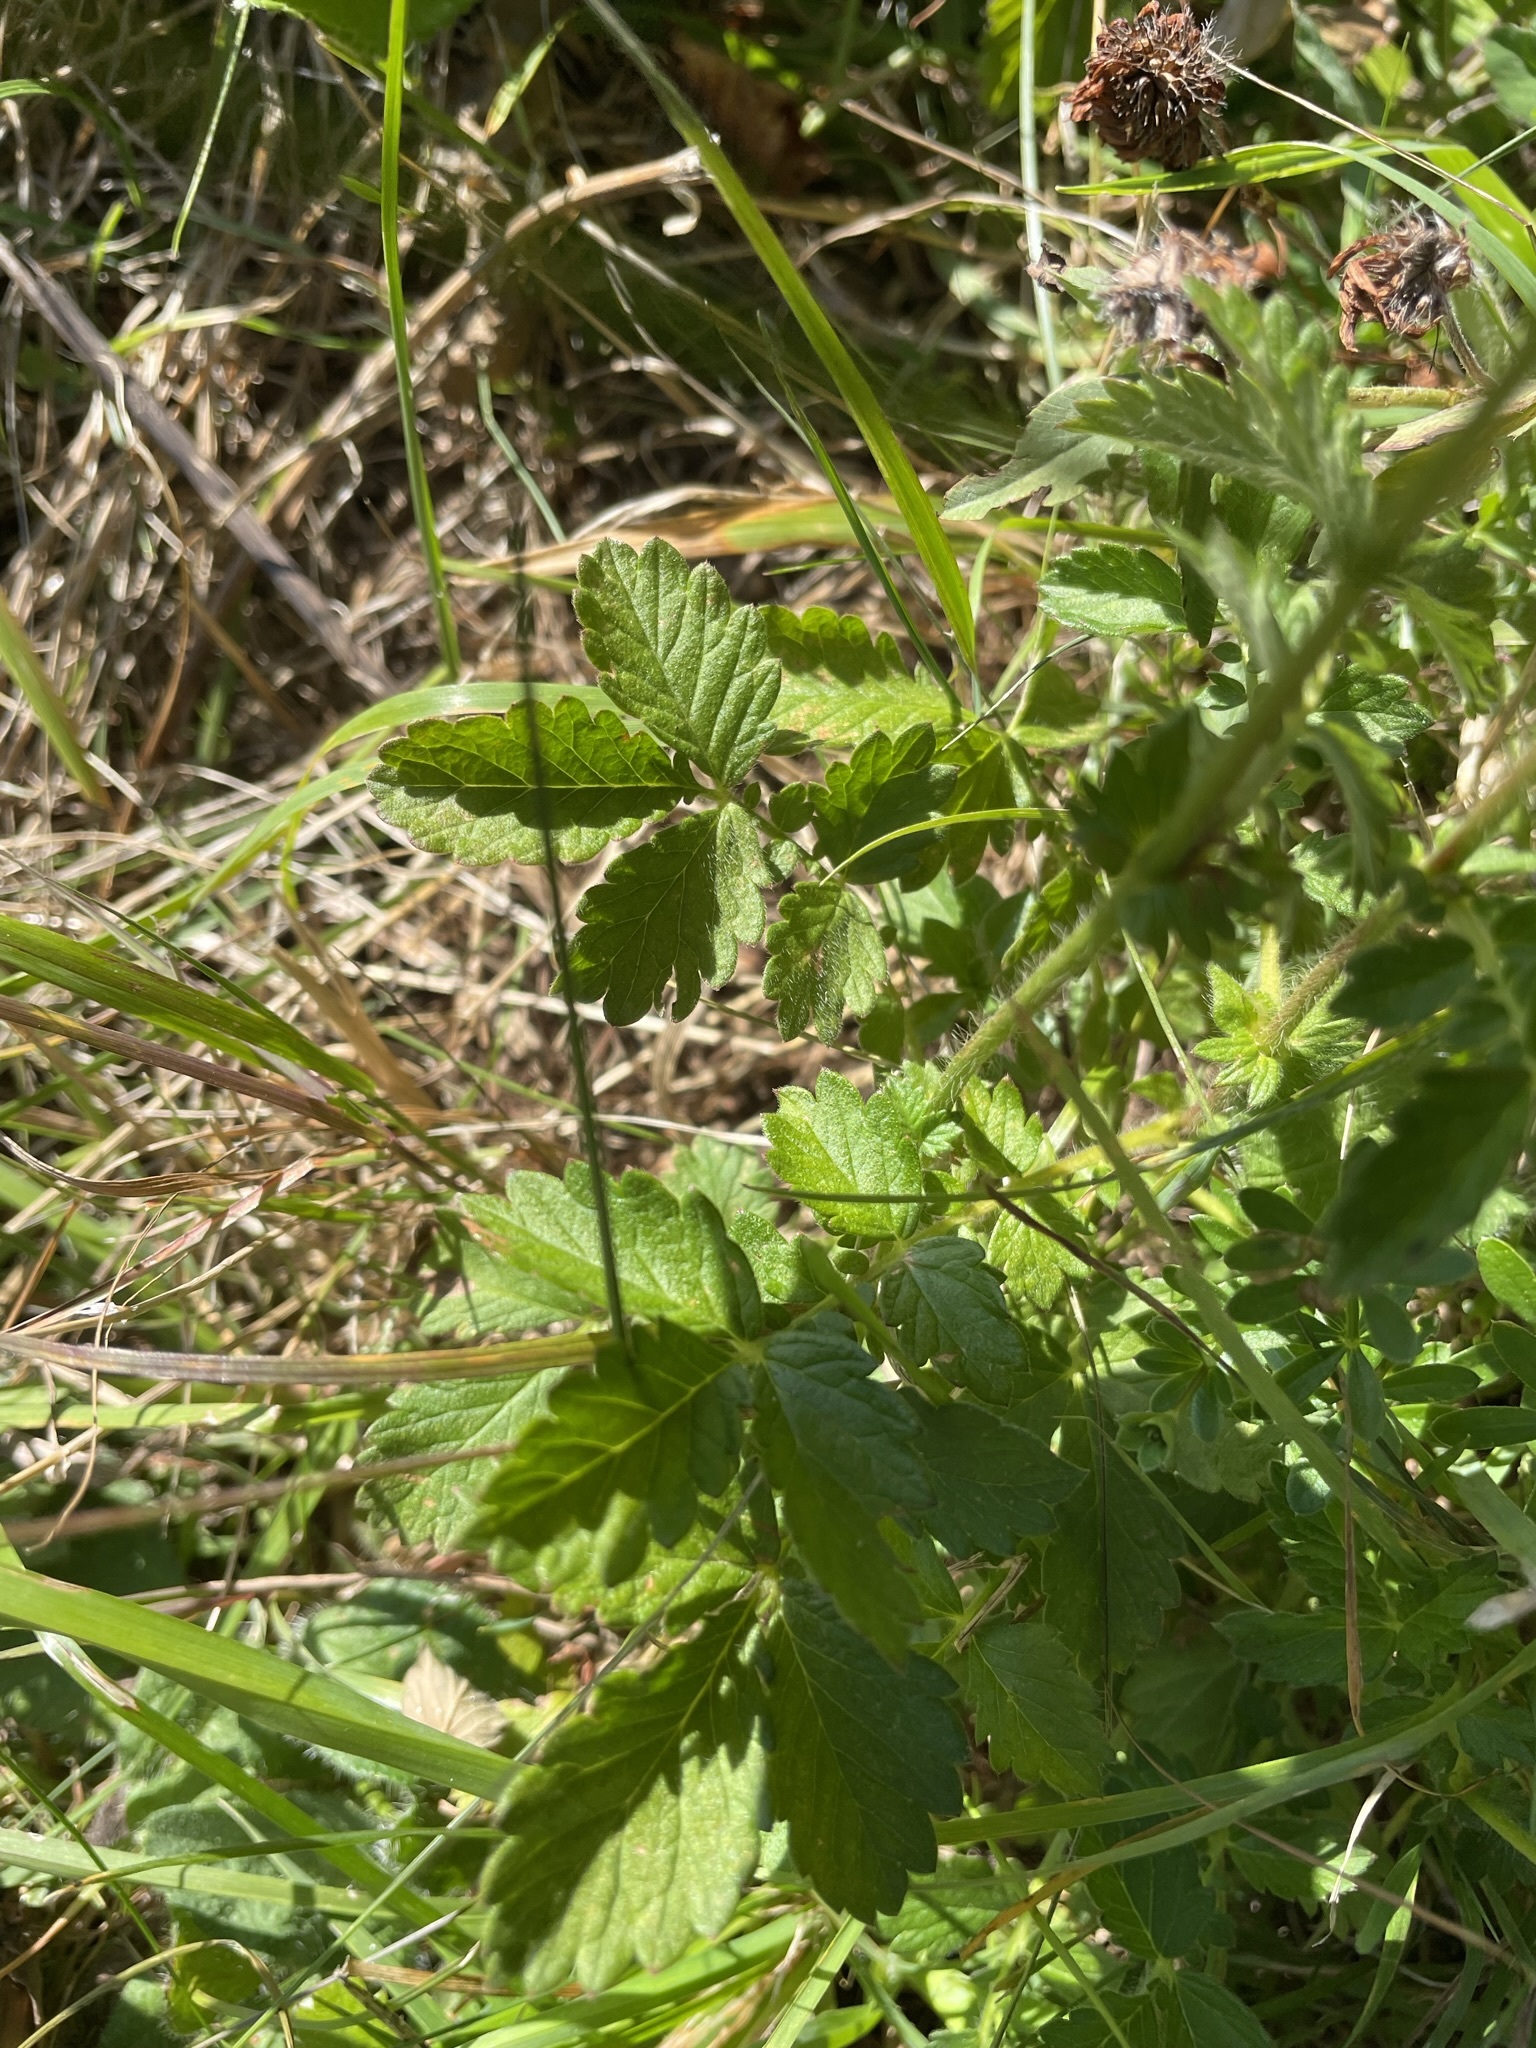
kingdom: Plantae
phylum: Tracheophyta
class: Magnoliopsida
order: Rosales
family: Rosaceae
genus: Agrimonia
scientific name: Agrimonia eupatoria
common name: Agrimony
